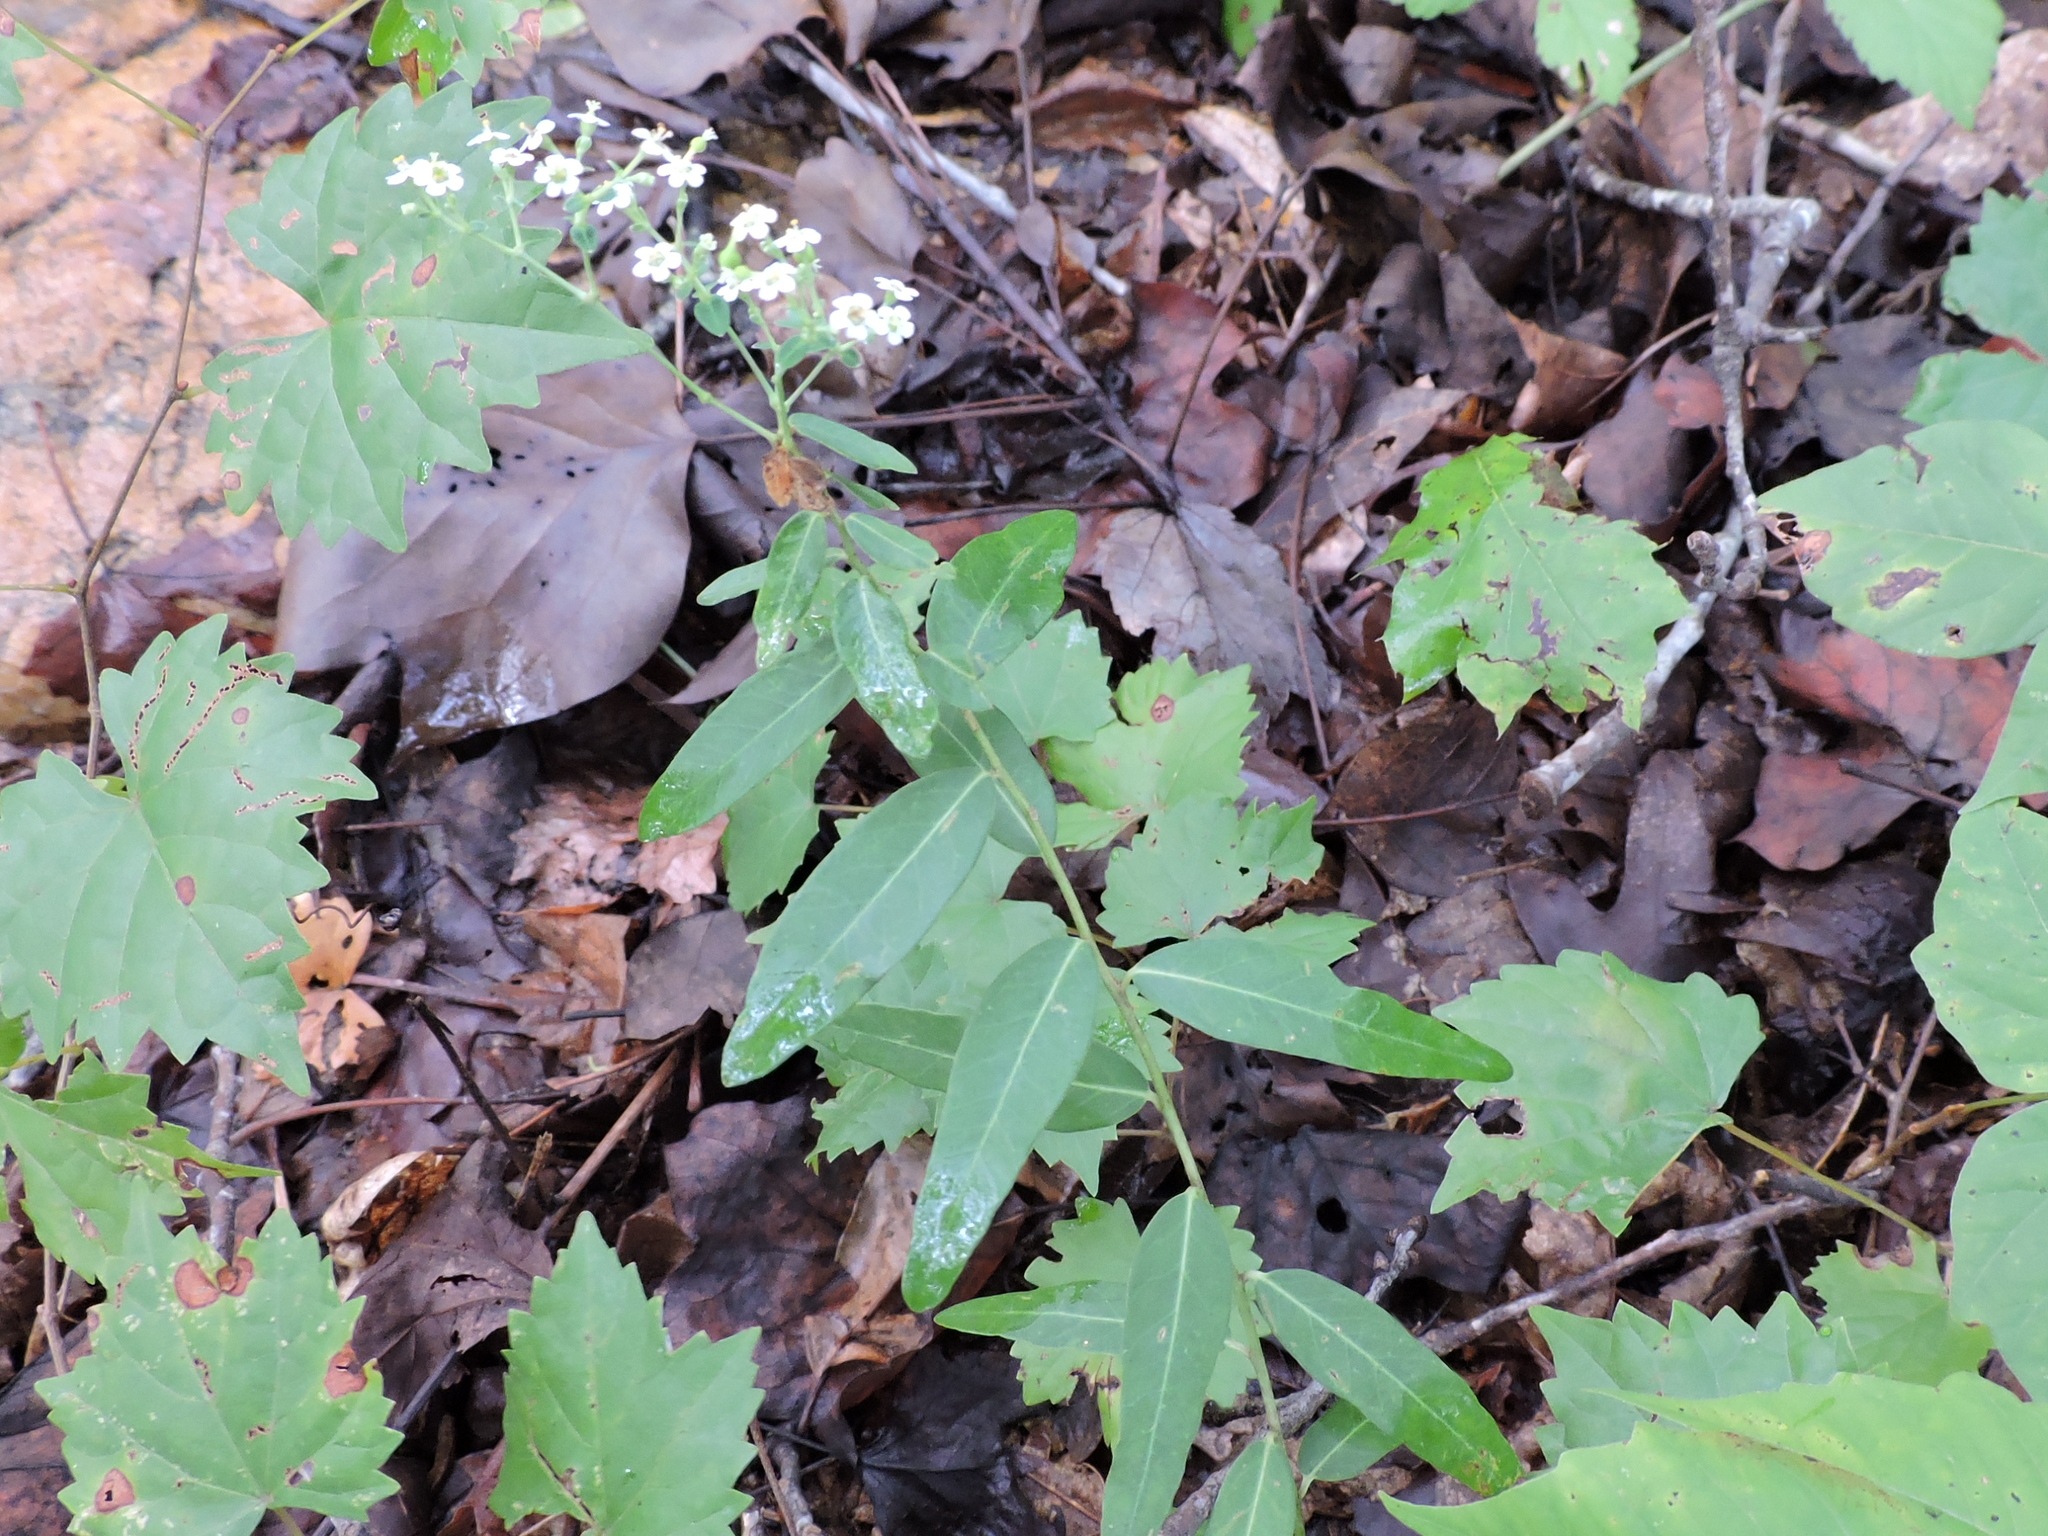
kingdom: Plantae
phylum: Tracheophyta
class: Magnoliopsida
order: Malpighiales
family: Euphorbiaceae
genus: Euphorbia
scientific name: Euphorbia corollata
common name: Flowering spurge
